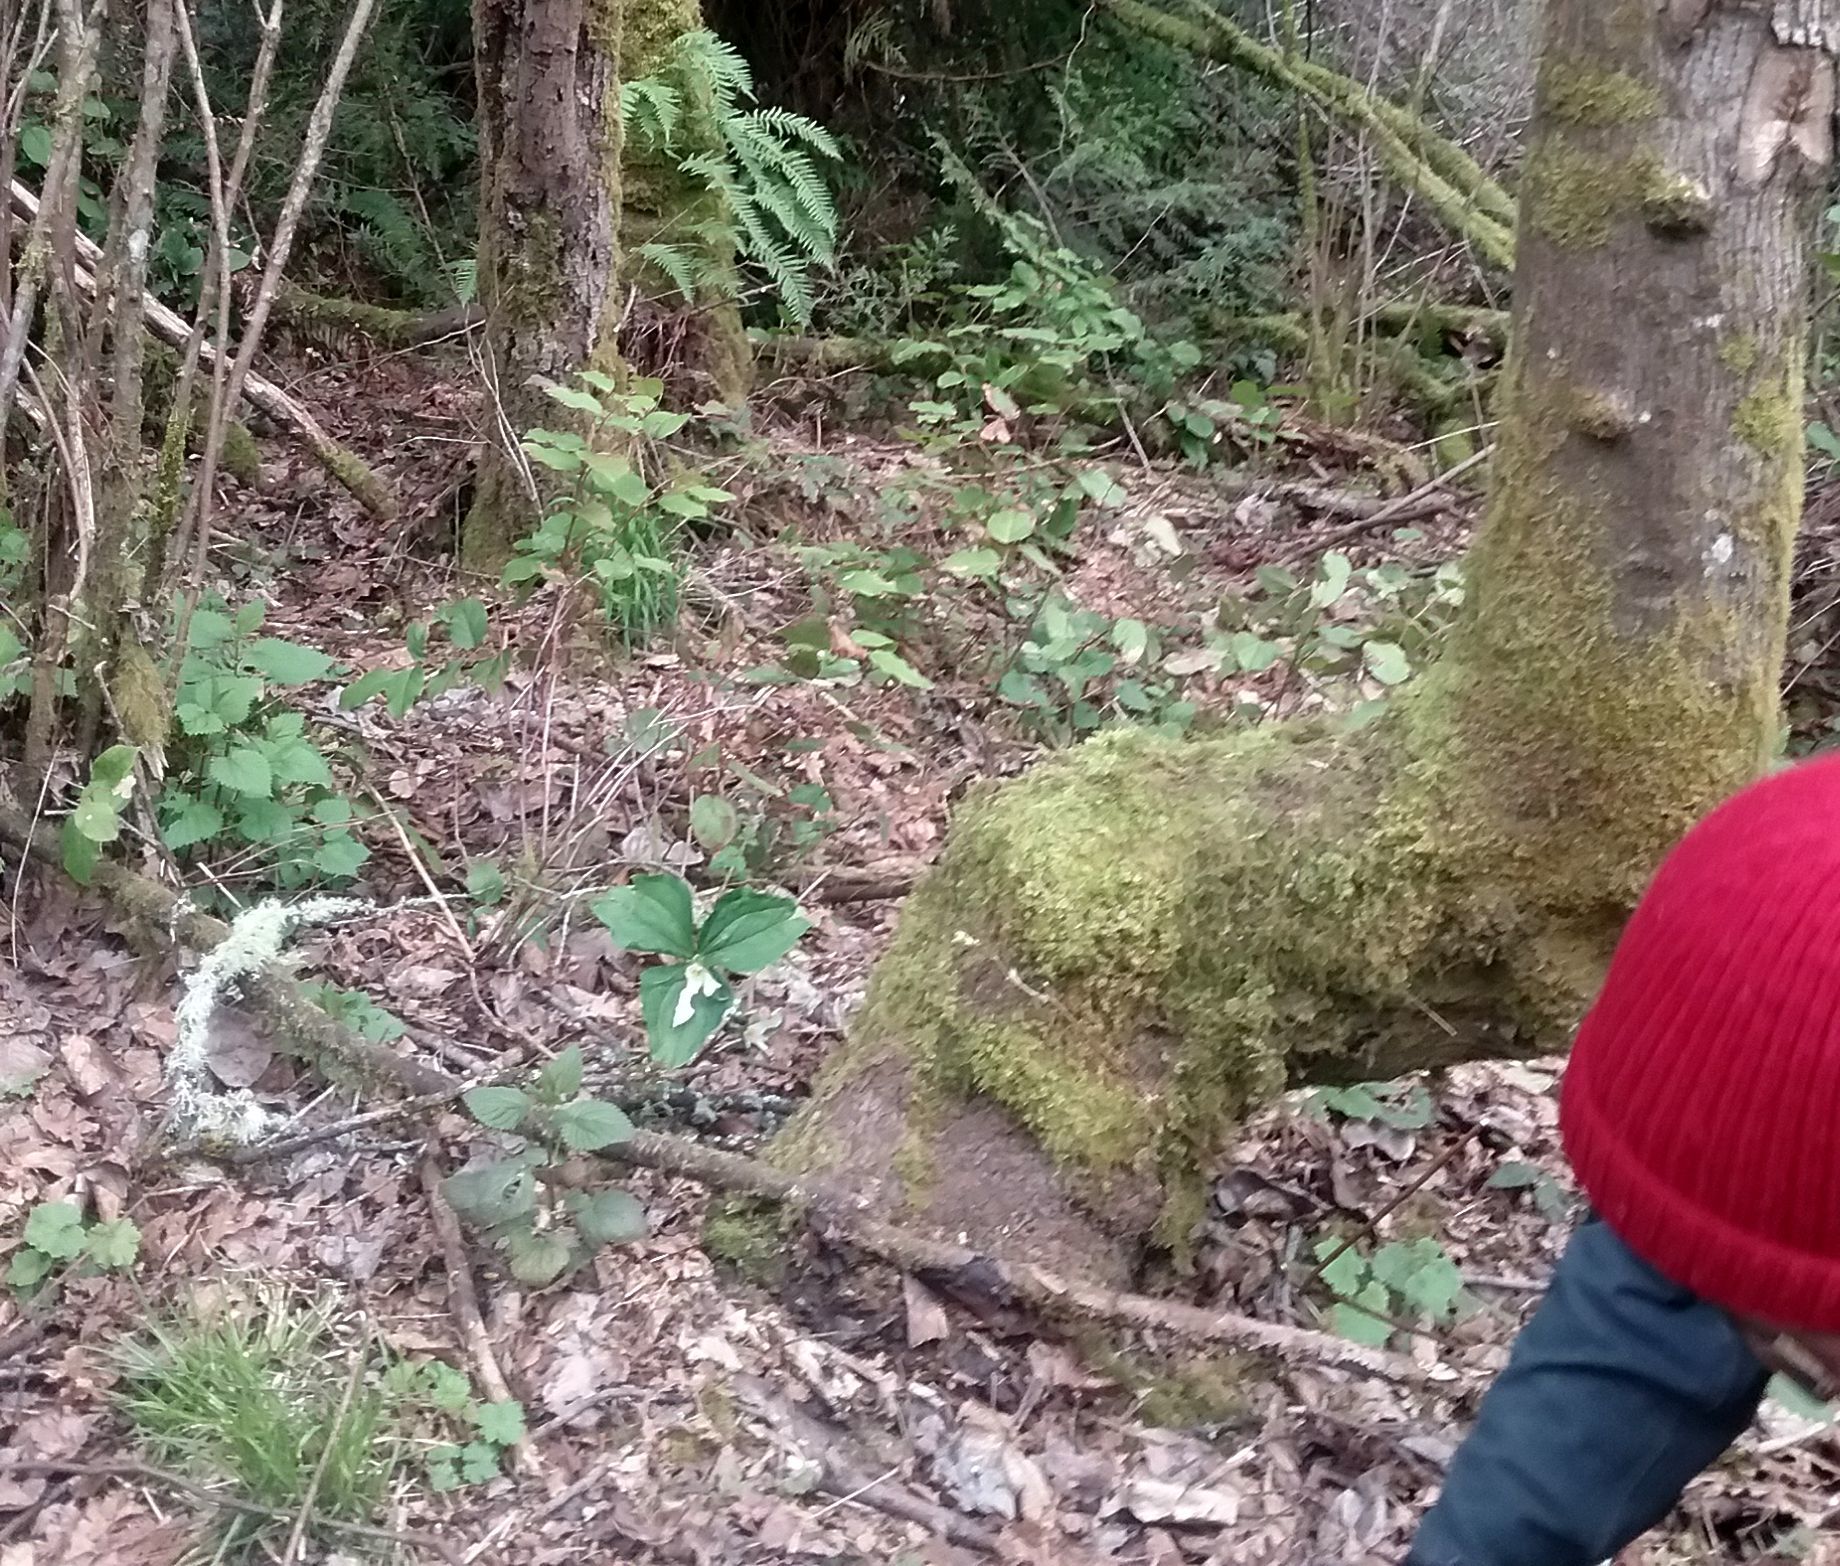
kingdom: Plantae
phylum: Tracheophyta
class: Liliopsida
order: Liliales
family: Melanthiaceae
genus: Trillium
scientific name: Trillium ovatum
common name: Pacific trillium
